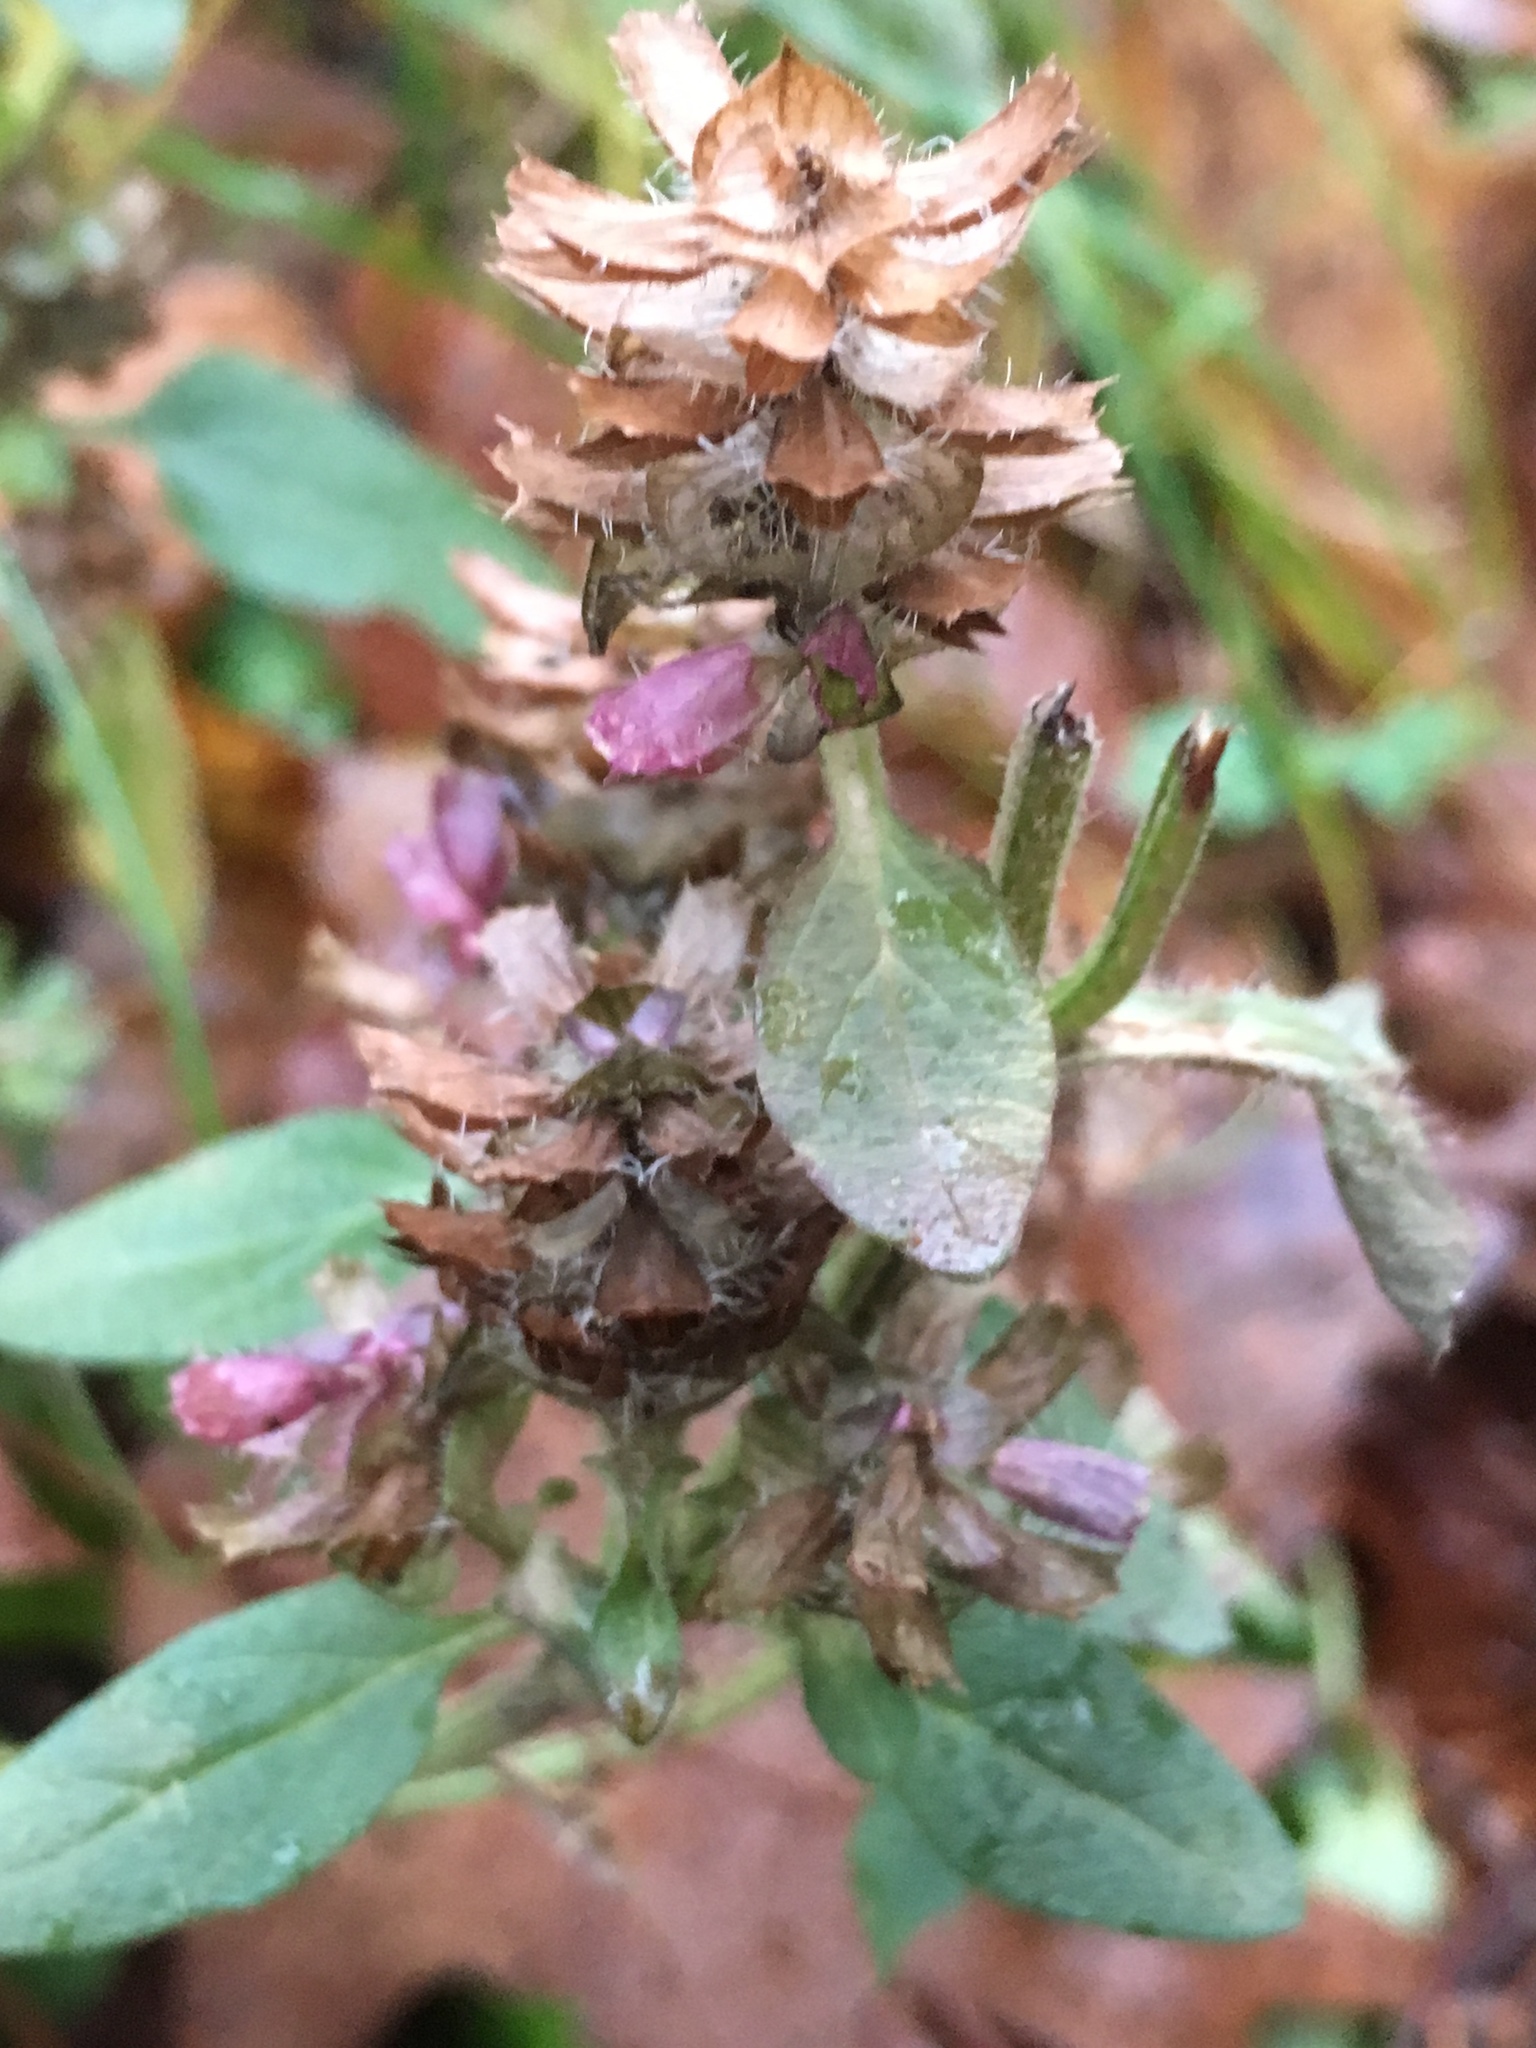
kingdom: Plantae
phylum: Tracheophyta
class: Magnoliopsida
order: Lamiales
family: Lamiaceae
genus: Prunella
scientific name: Prunella vulgaris
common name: Heal-all
